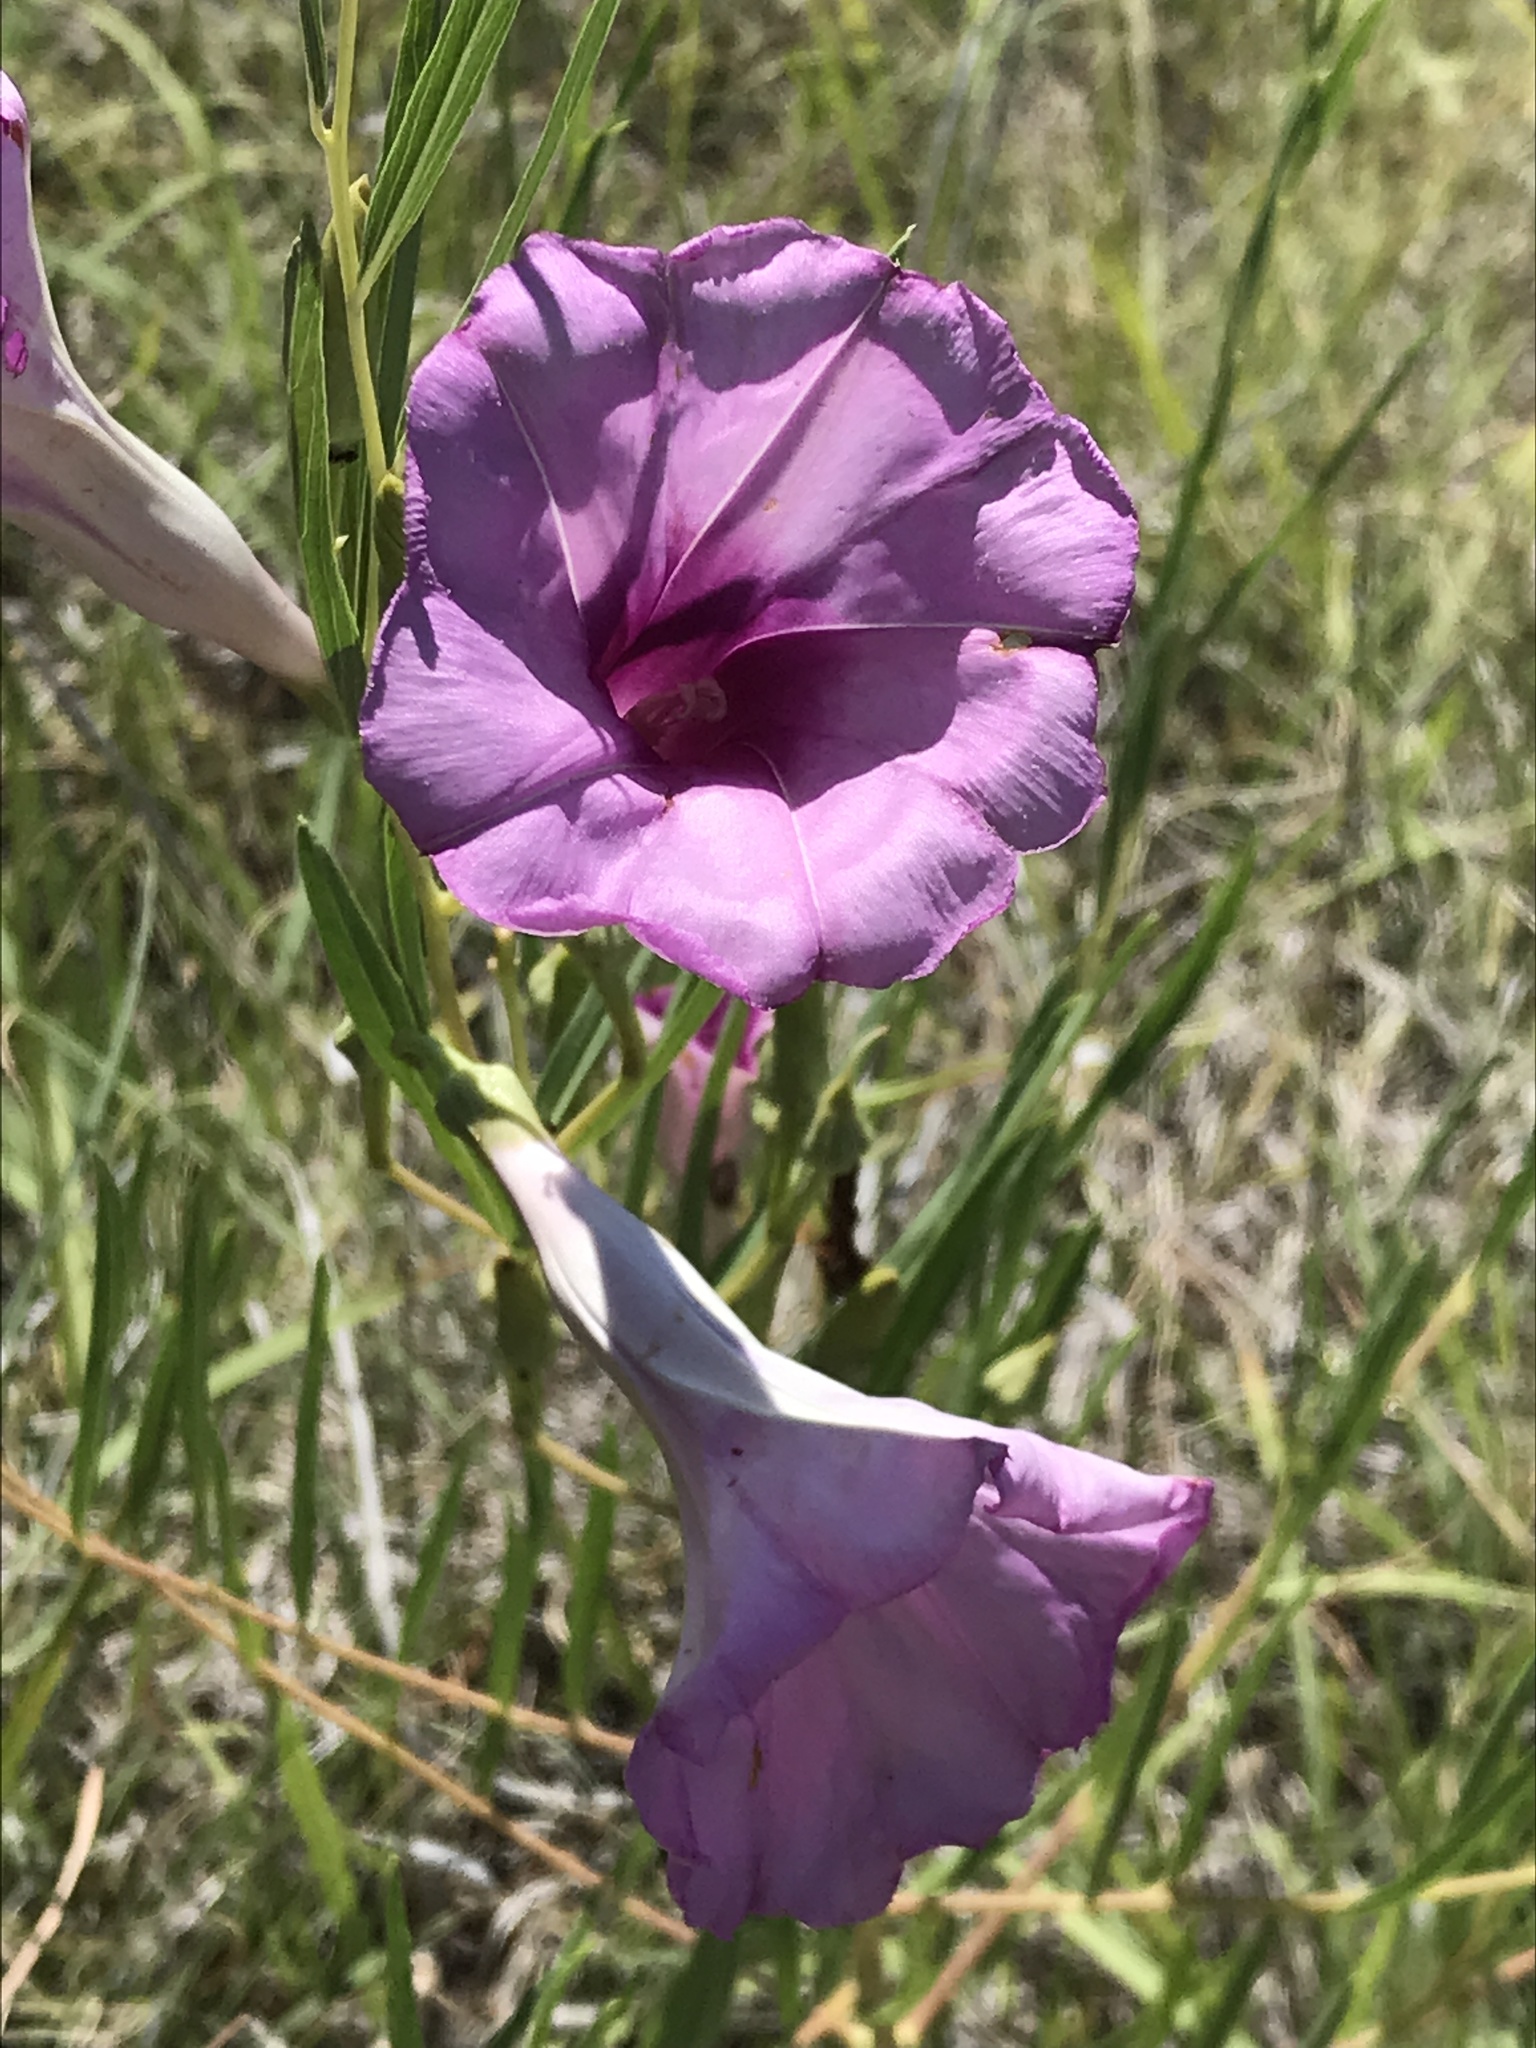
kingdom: Plantae
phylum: Tracheophyta
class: Magnoliopsida
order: Solanales
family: Convolvulaceae
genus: Ipomoea
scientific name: Ipomoea leptophylla
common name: Bush moonflower
